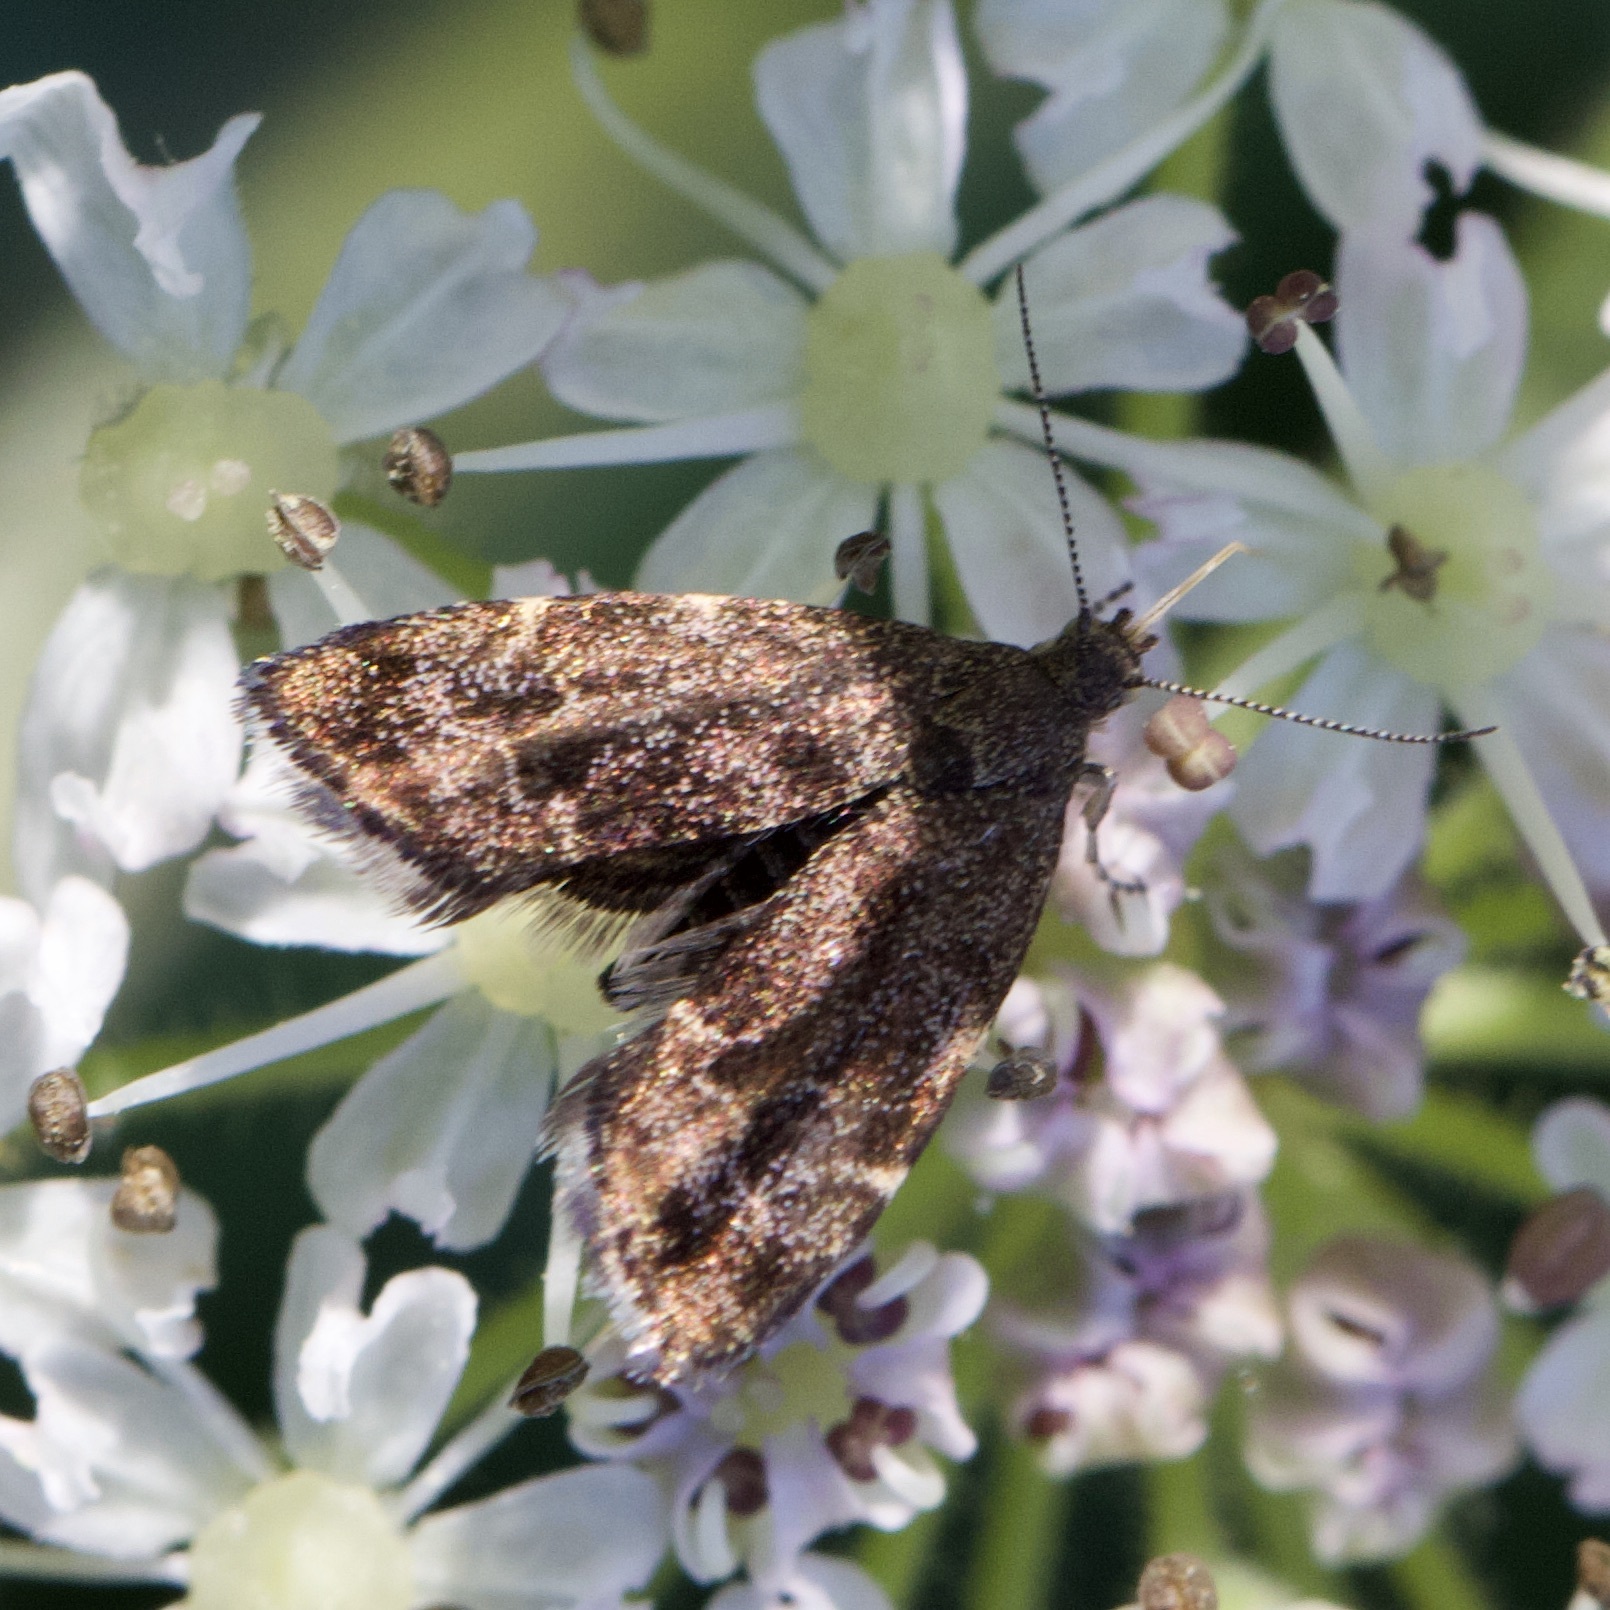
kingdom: Animalia
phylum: Arthropoda
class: Insecta
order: Lepidoptera
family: Choreutidae
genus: Anthophila
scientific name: Anthophila fabriciana
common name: Nettle-tap
